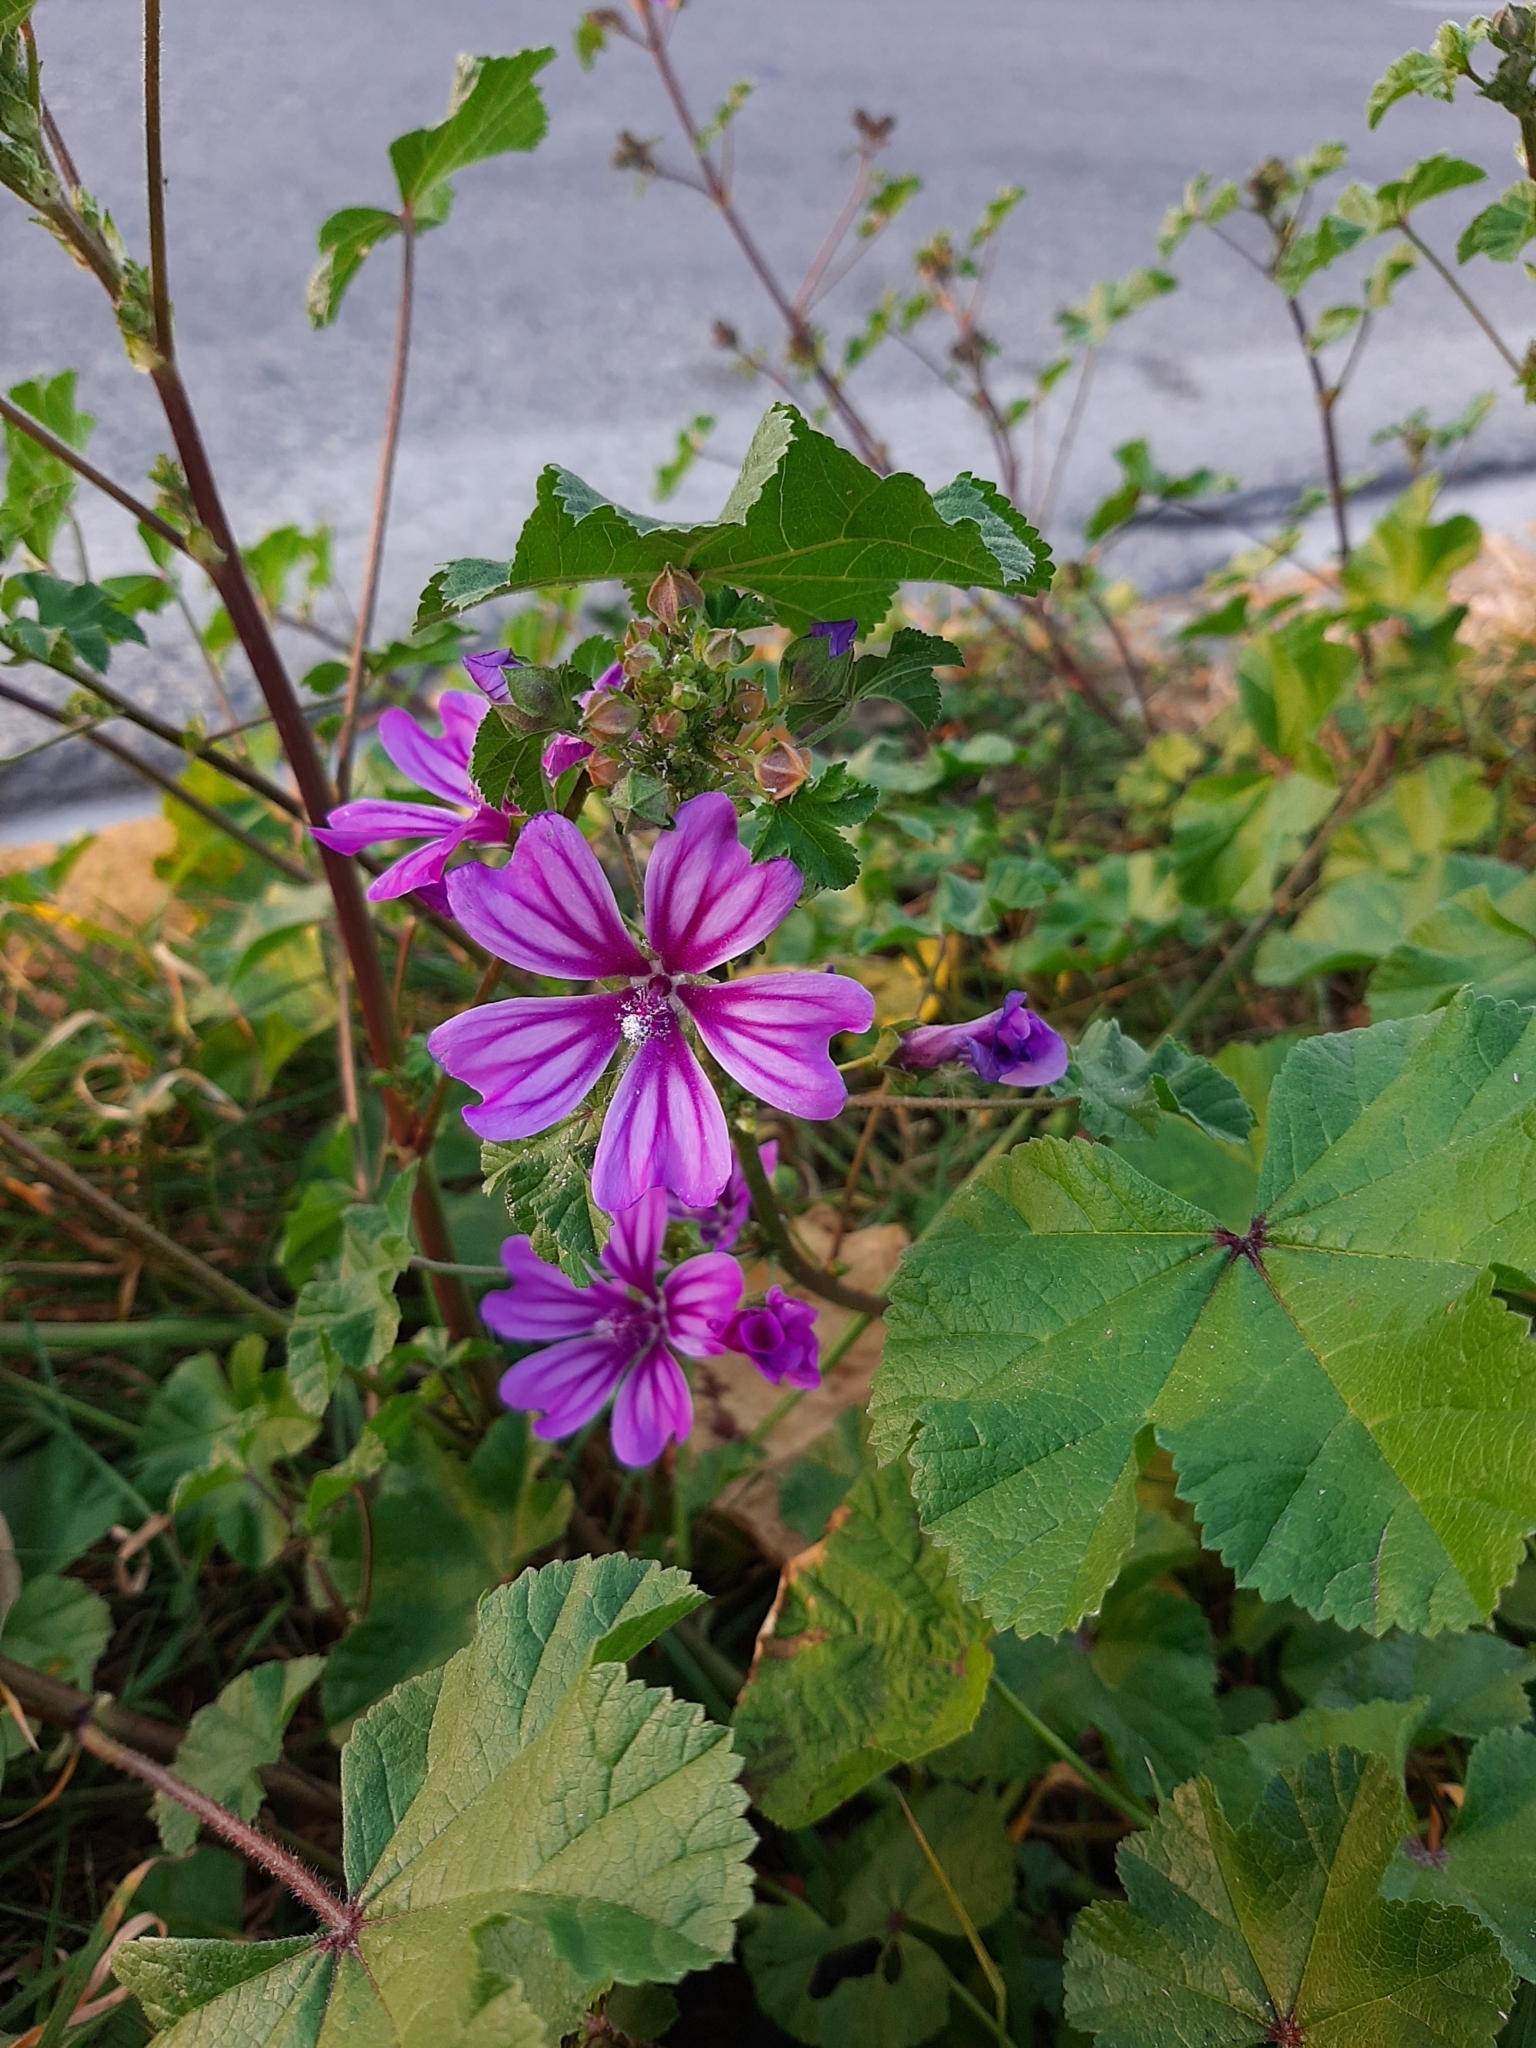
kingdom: Plantae
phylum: Tracheophyta
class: Magnoliopsida
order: Malvales
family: Malvaceae
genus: Malva
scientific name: Malva sylvestris
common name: Common mallow
